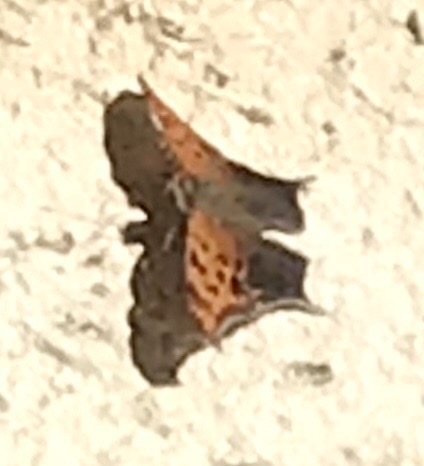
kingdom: Animalia
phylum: Arthropoda
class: Insecta
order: Lepidoptera
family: Nymphalidae
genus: Polygonia
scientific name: Polygonia interrogationis
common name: Question mark
